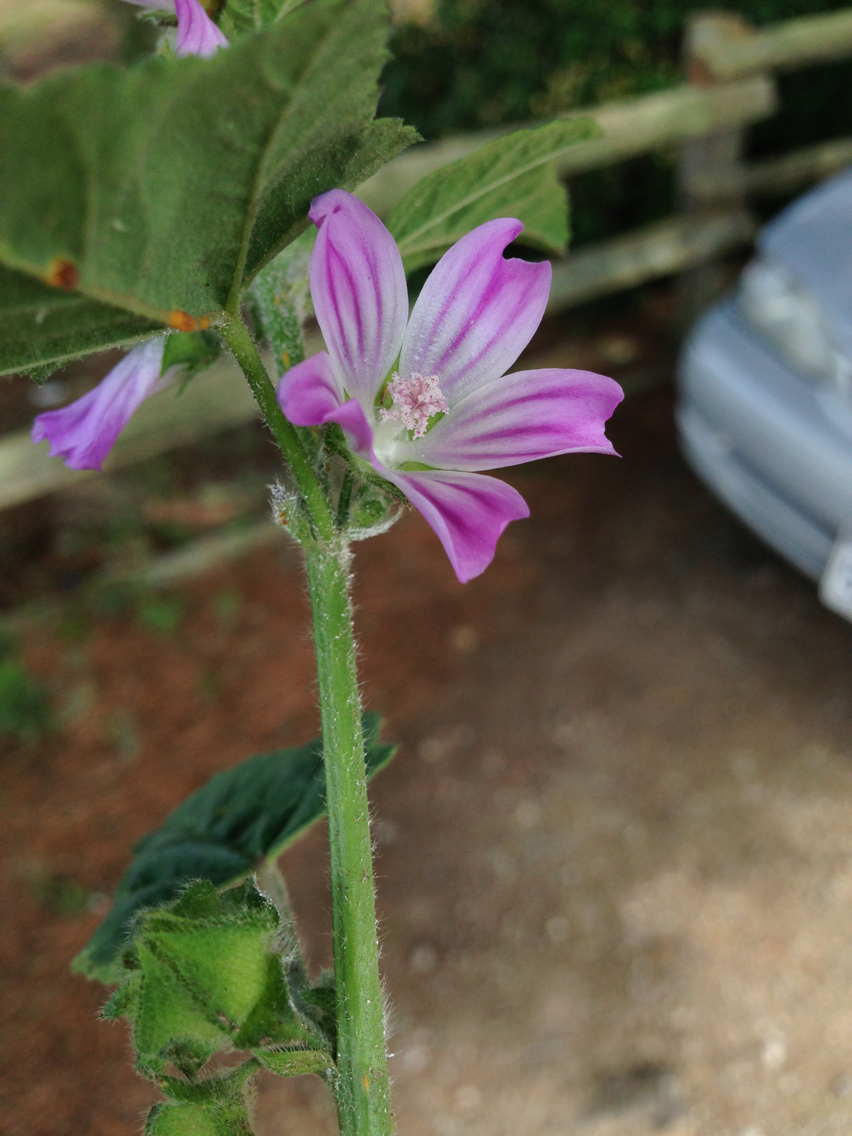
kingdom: Plantae
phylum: Tracheophyta
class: Magnoliopsida
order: Malvales
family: Malvaceae
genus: Malva
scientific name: Malva multiflora
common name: Cheeseweed
